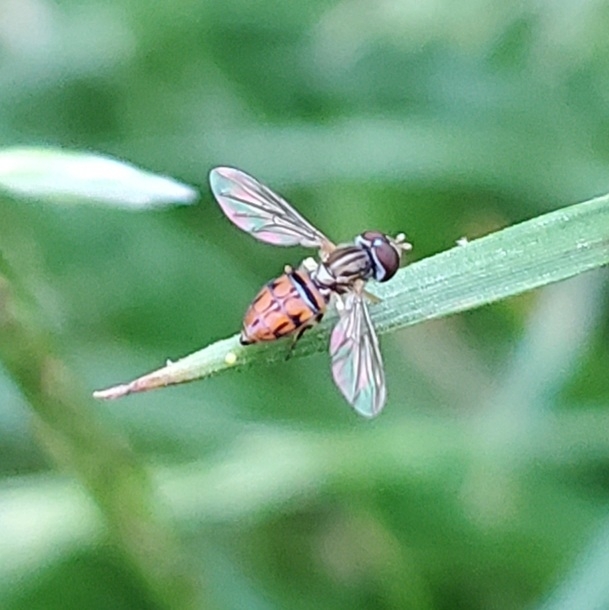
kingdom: Animalia
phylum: Arthropoda
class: Insecta
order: Diptera
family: Syrphidae
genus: Toxomerus
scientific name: Toxomerus boscii
